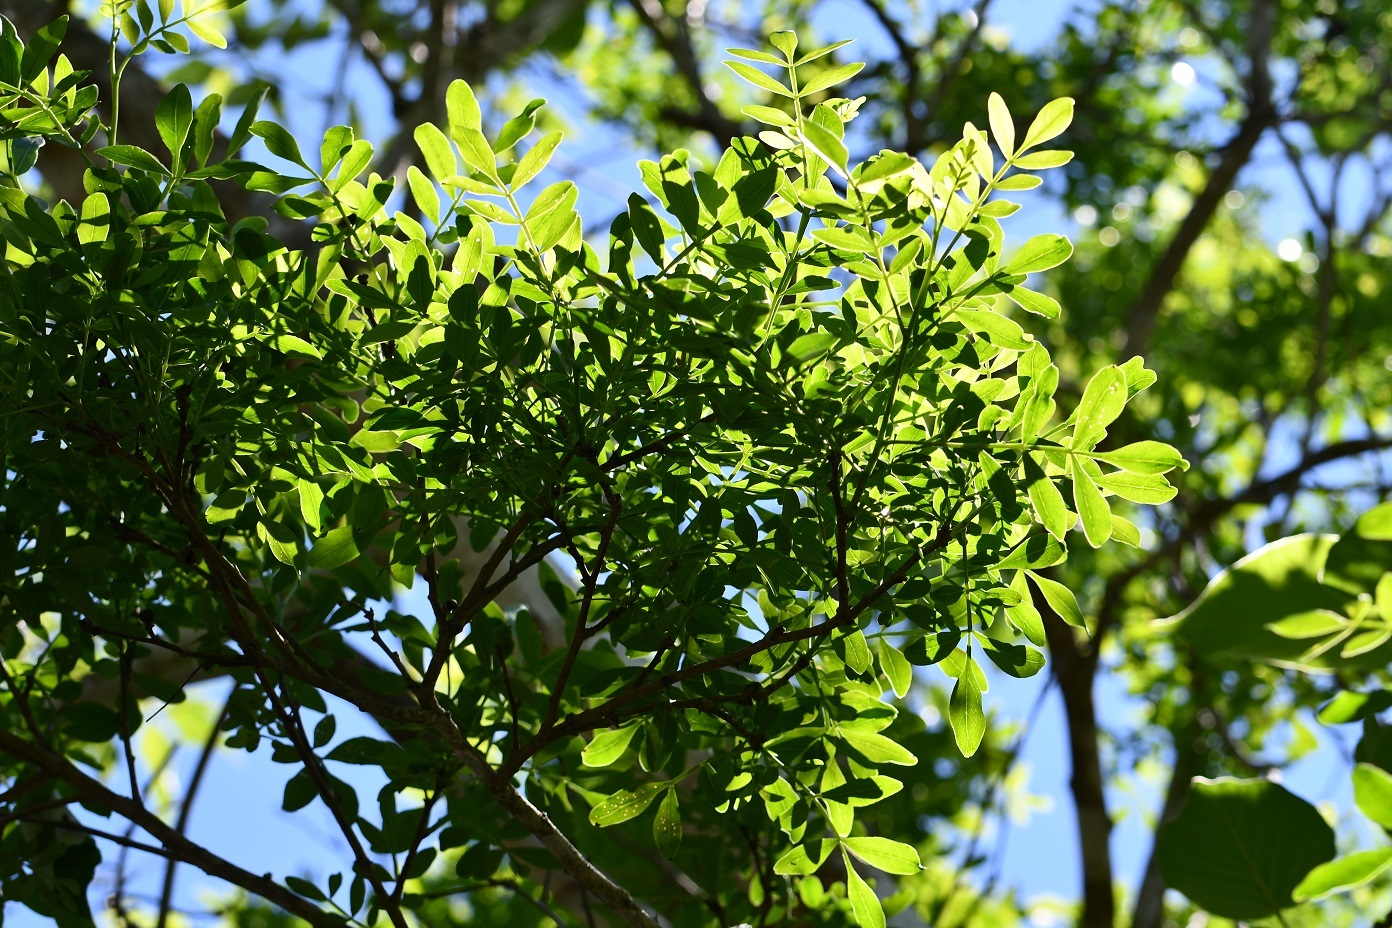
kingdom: Plantae
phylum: Tracheophyta
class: Magnoliopsida
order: Sapindales
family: Rutaceae
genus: Zanthoxylum
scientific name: Zanthoxylum quassiifolium
